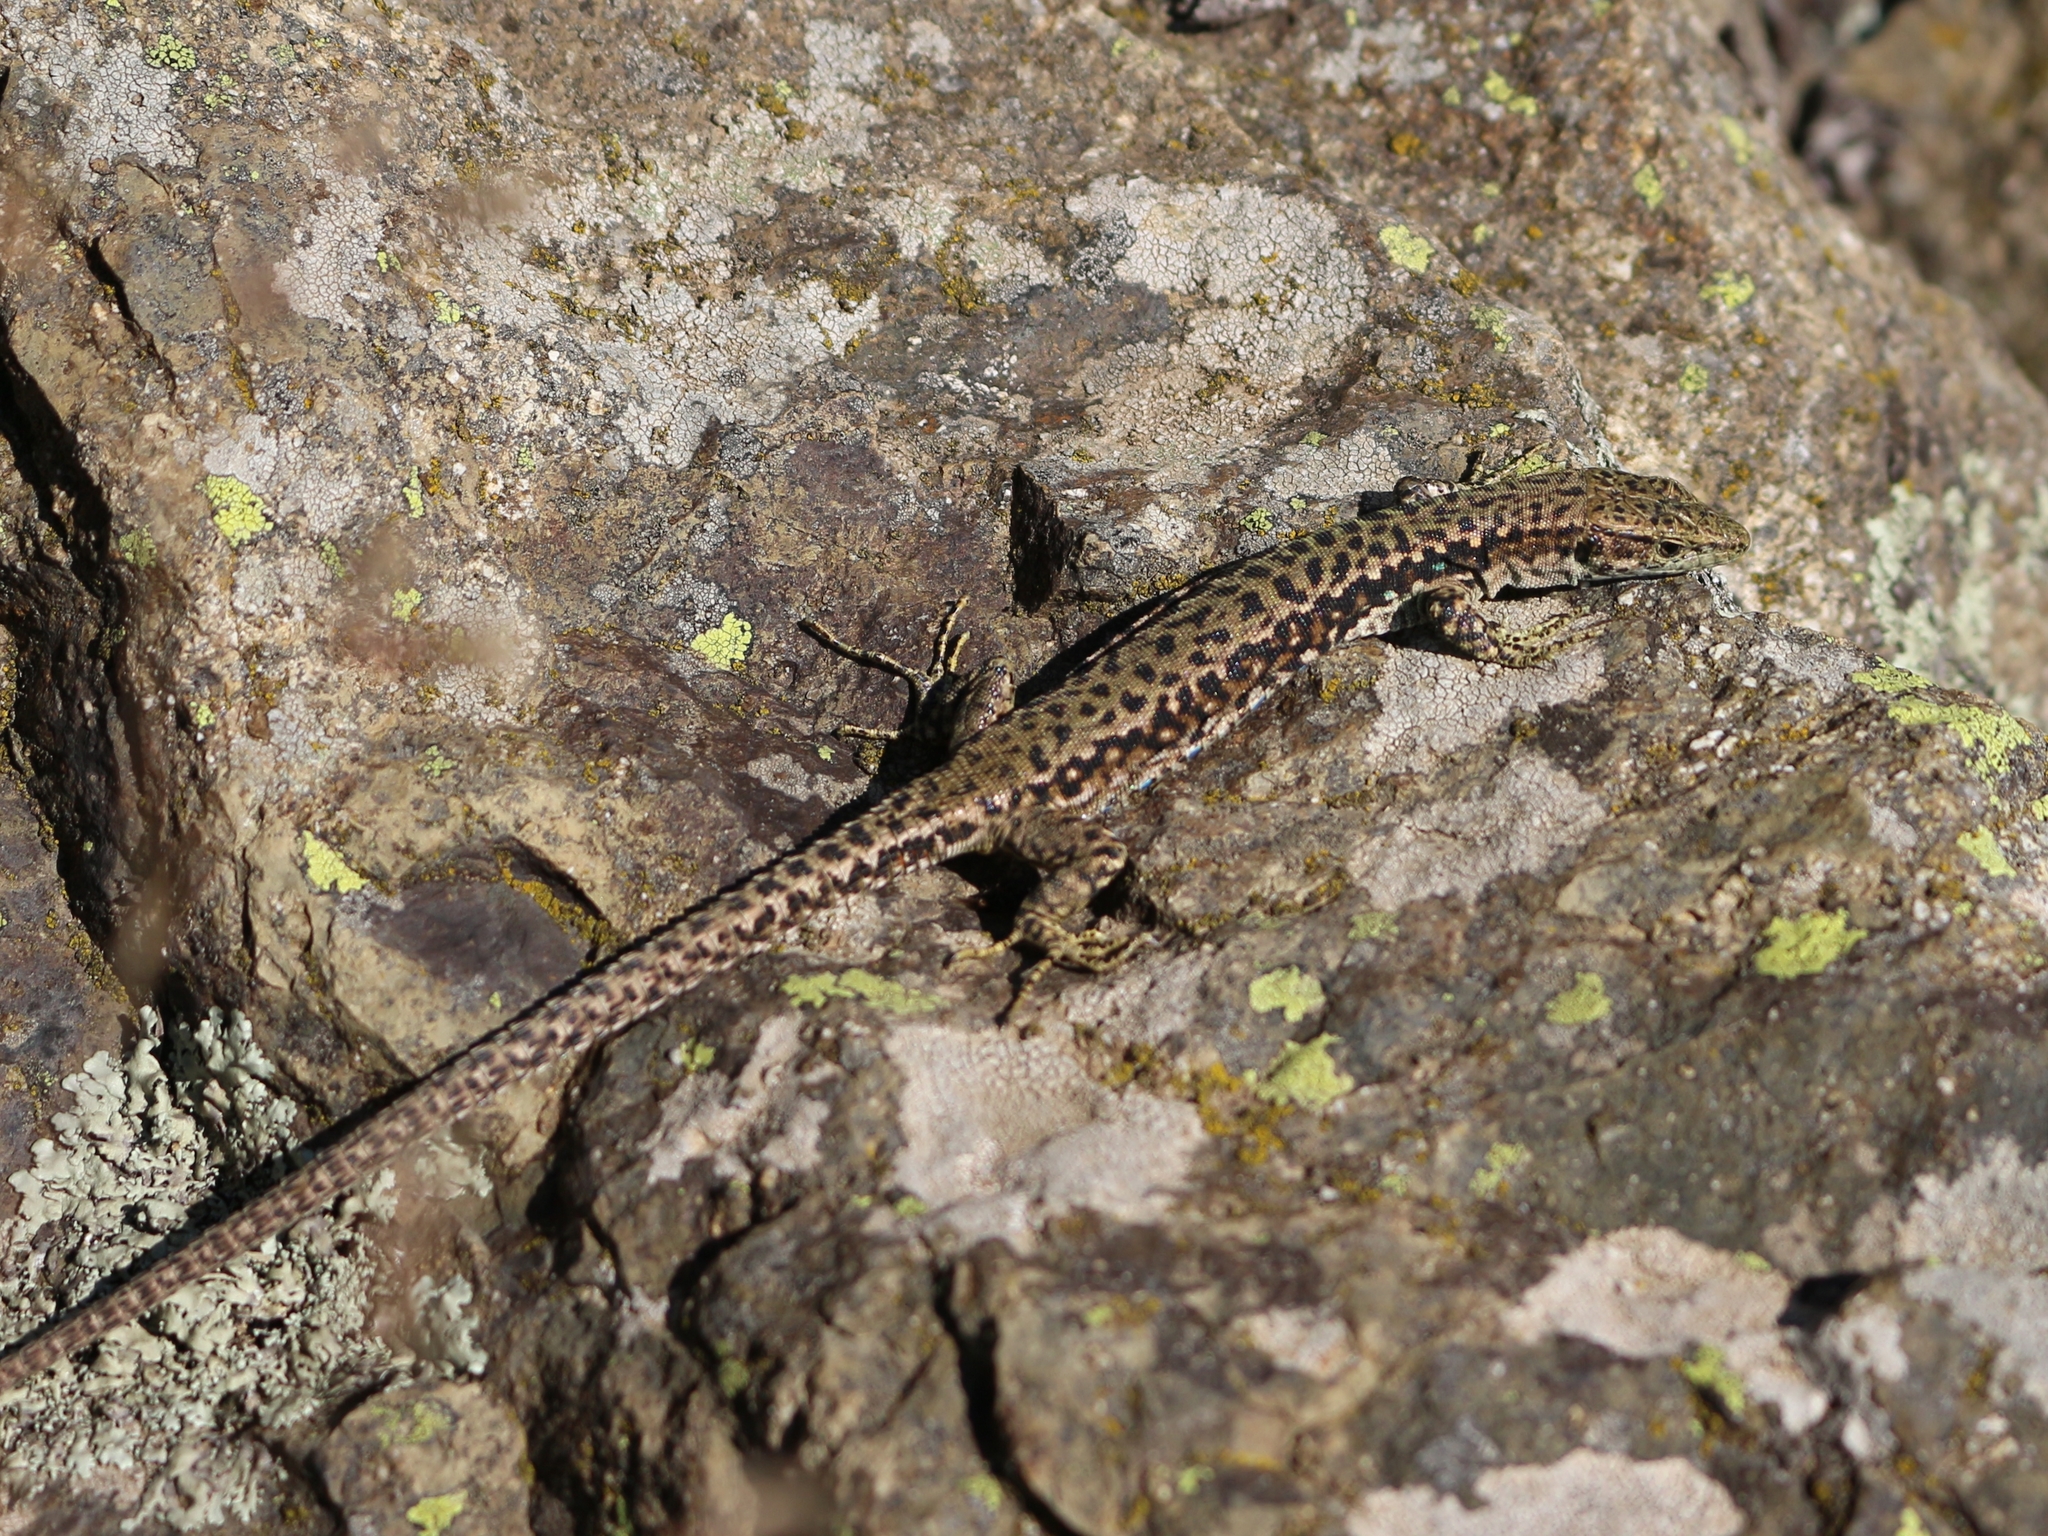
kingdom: Animalia
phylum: Chordata
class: Squamata
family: Lacertidae
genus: Darevskia
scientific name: Darevskia brauneri
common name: Brauner's rock lizard
